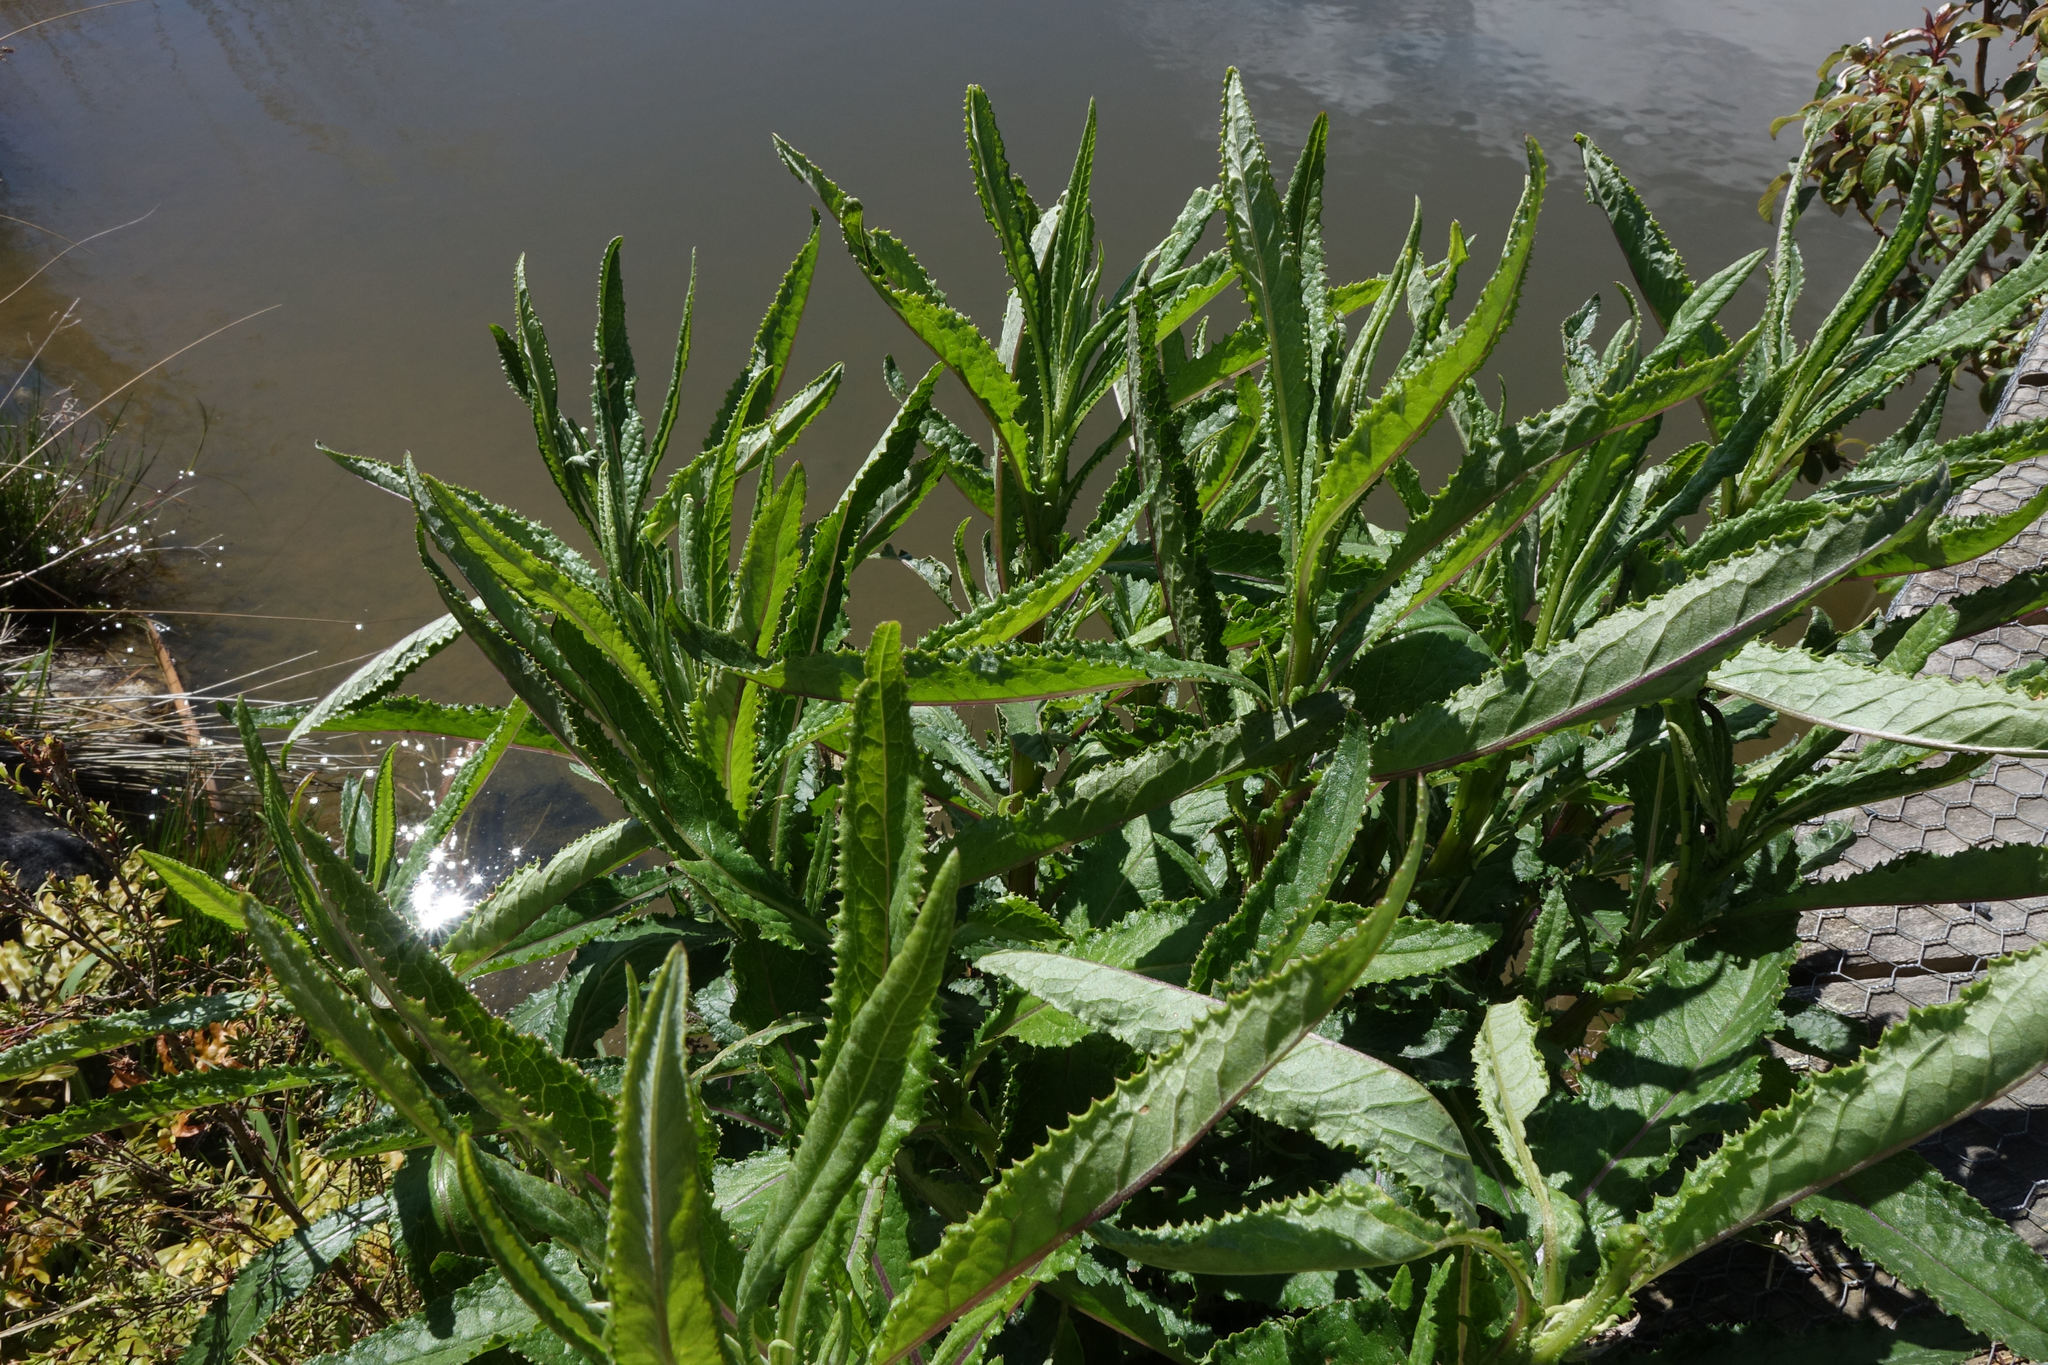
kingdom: Plantae
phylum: Tracheophyta
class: Magnoliopsida
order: Asterales
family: Asteraceae
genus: Senecio
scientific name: Senecio minimus
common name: Toothed fireweed
